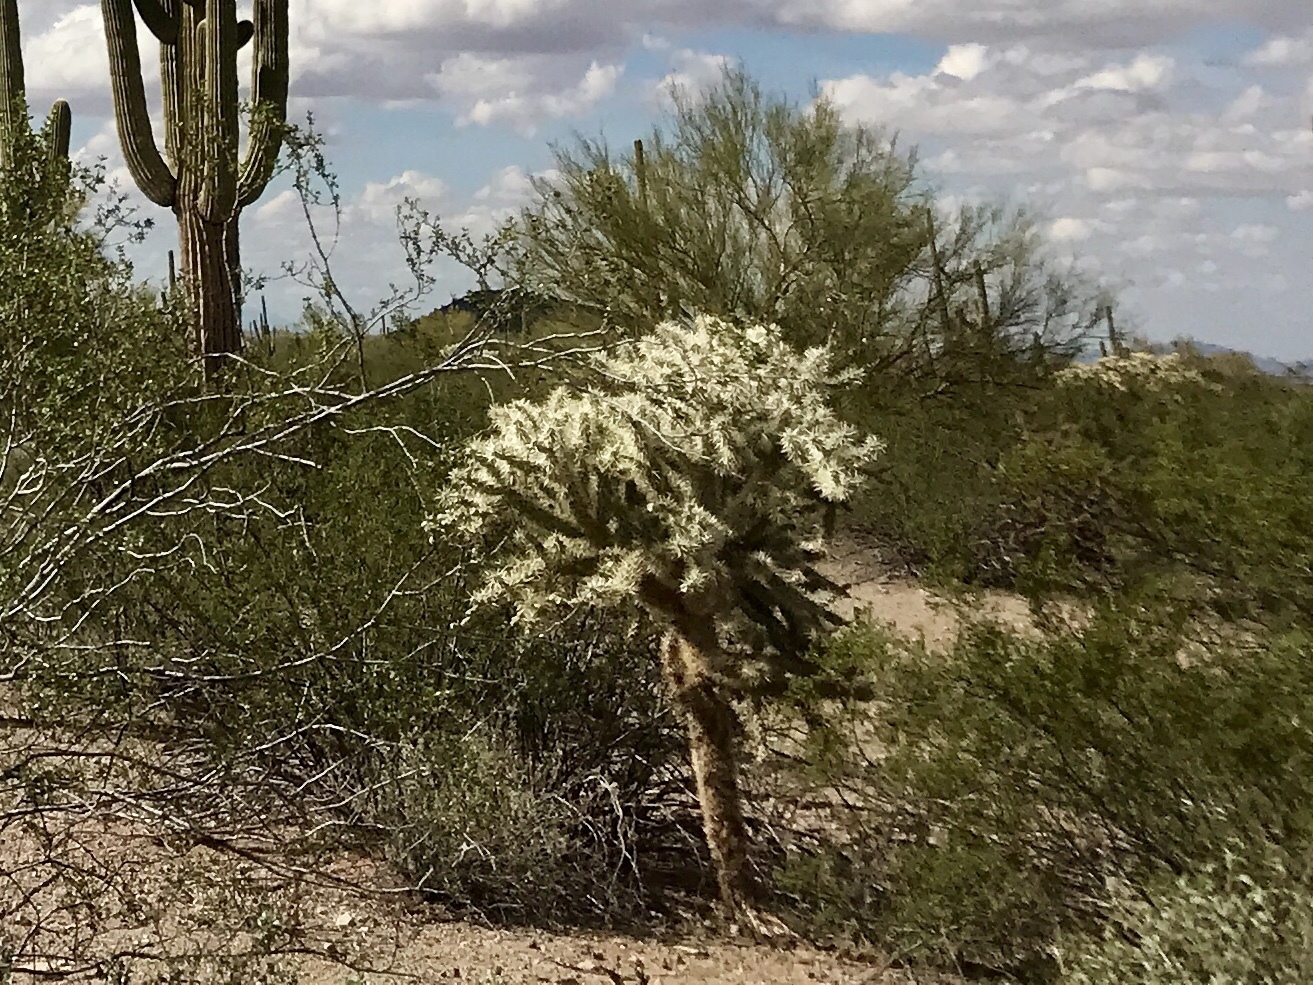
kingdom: Plantae
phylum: Tracheophyta
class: Magnoliopsida
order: Caryophyllales
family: Cactaceae
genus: Cylindropuntia
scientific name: Cylindropuntia fulgida
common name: Jumping cholla
